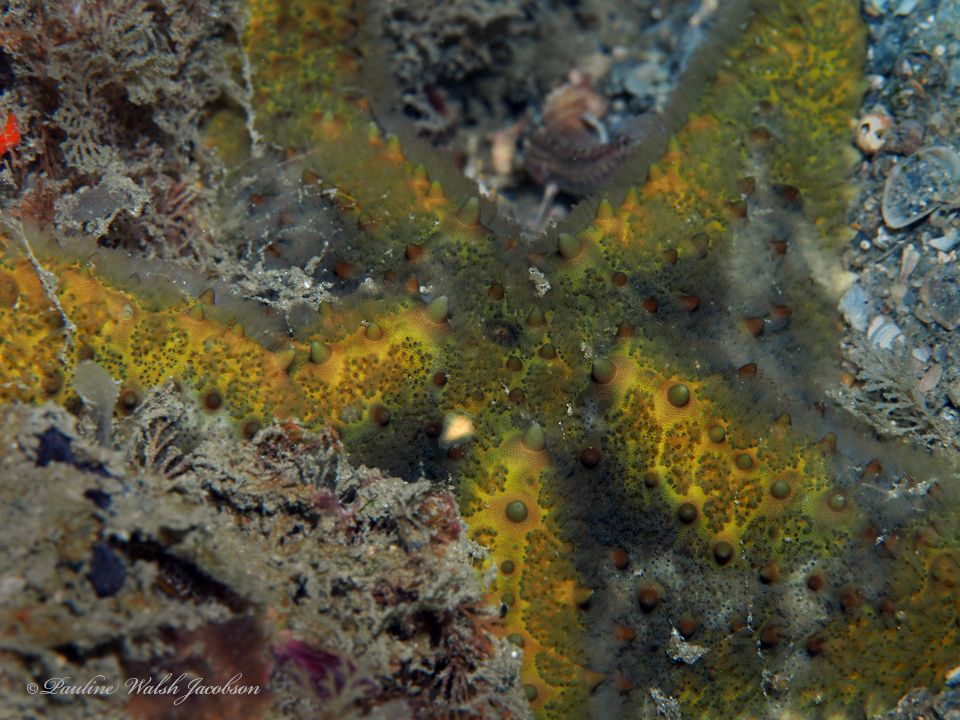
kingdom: Animalia
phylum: Echinodermata
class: Asteroidea
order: Valvatida
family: Oreasteridae
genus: Oreaster
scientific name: Oreaster reticulatus
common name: Cushion sea star
